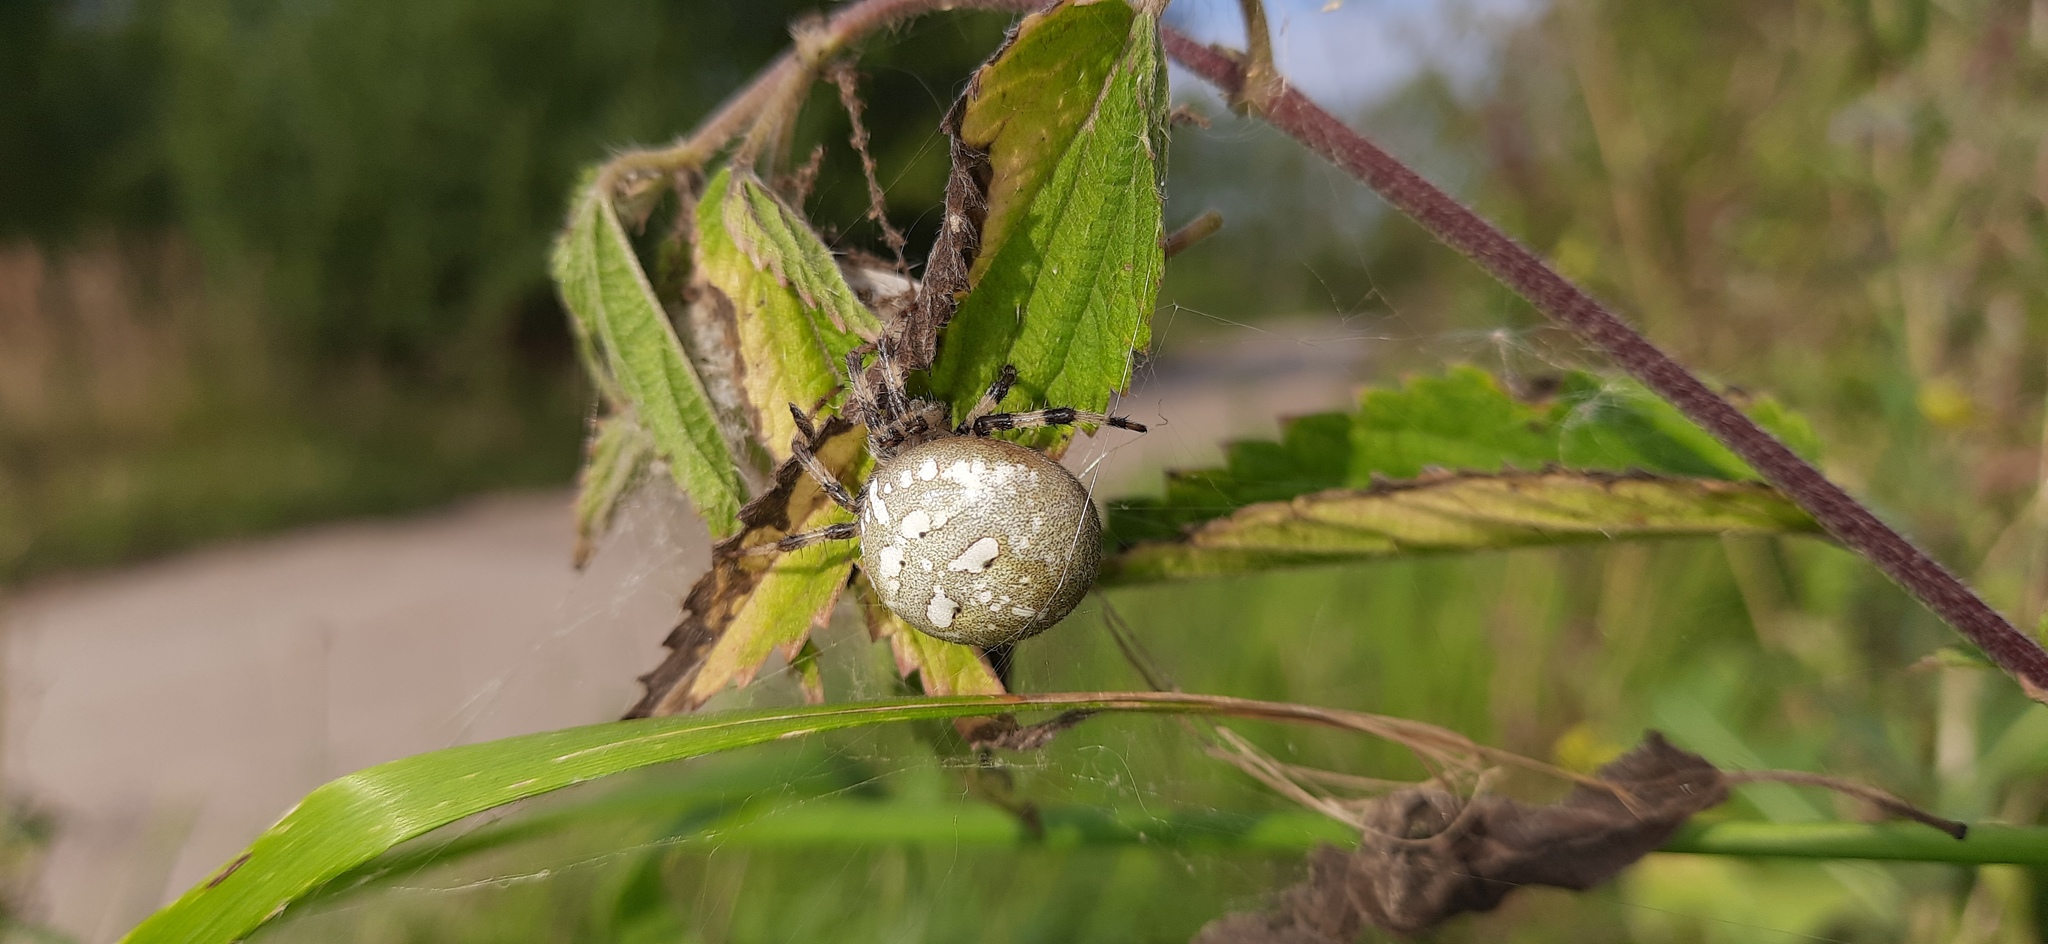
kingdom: Animalia
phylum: Arthropoda
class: Arachnida
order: Araneae
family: Araneidae
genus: Araneus
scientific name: Araneus quadratus
